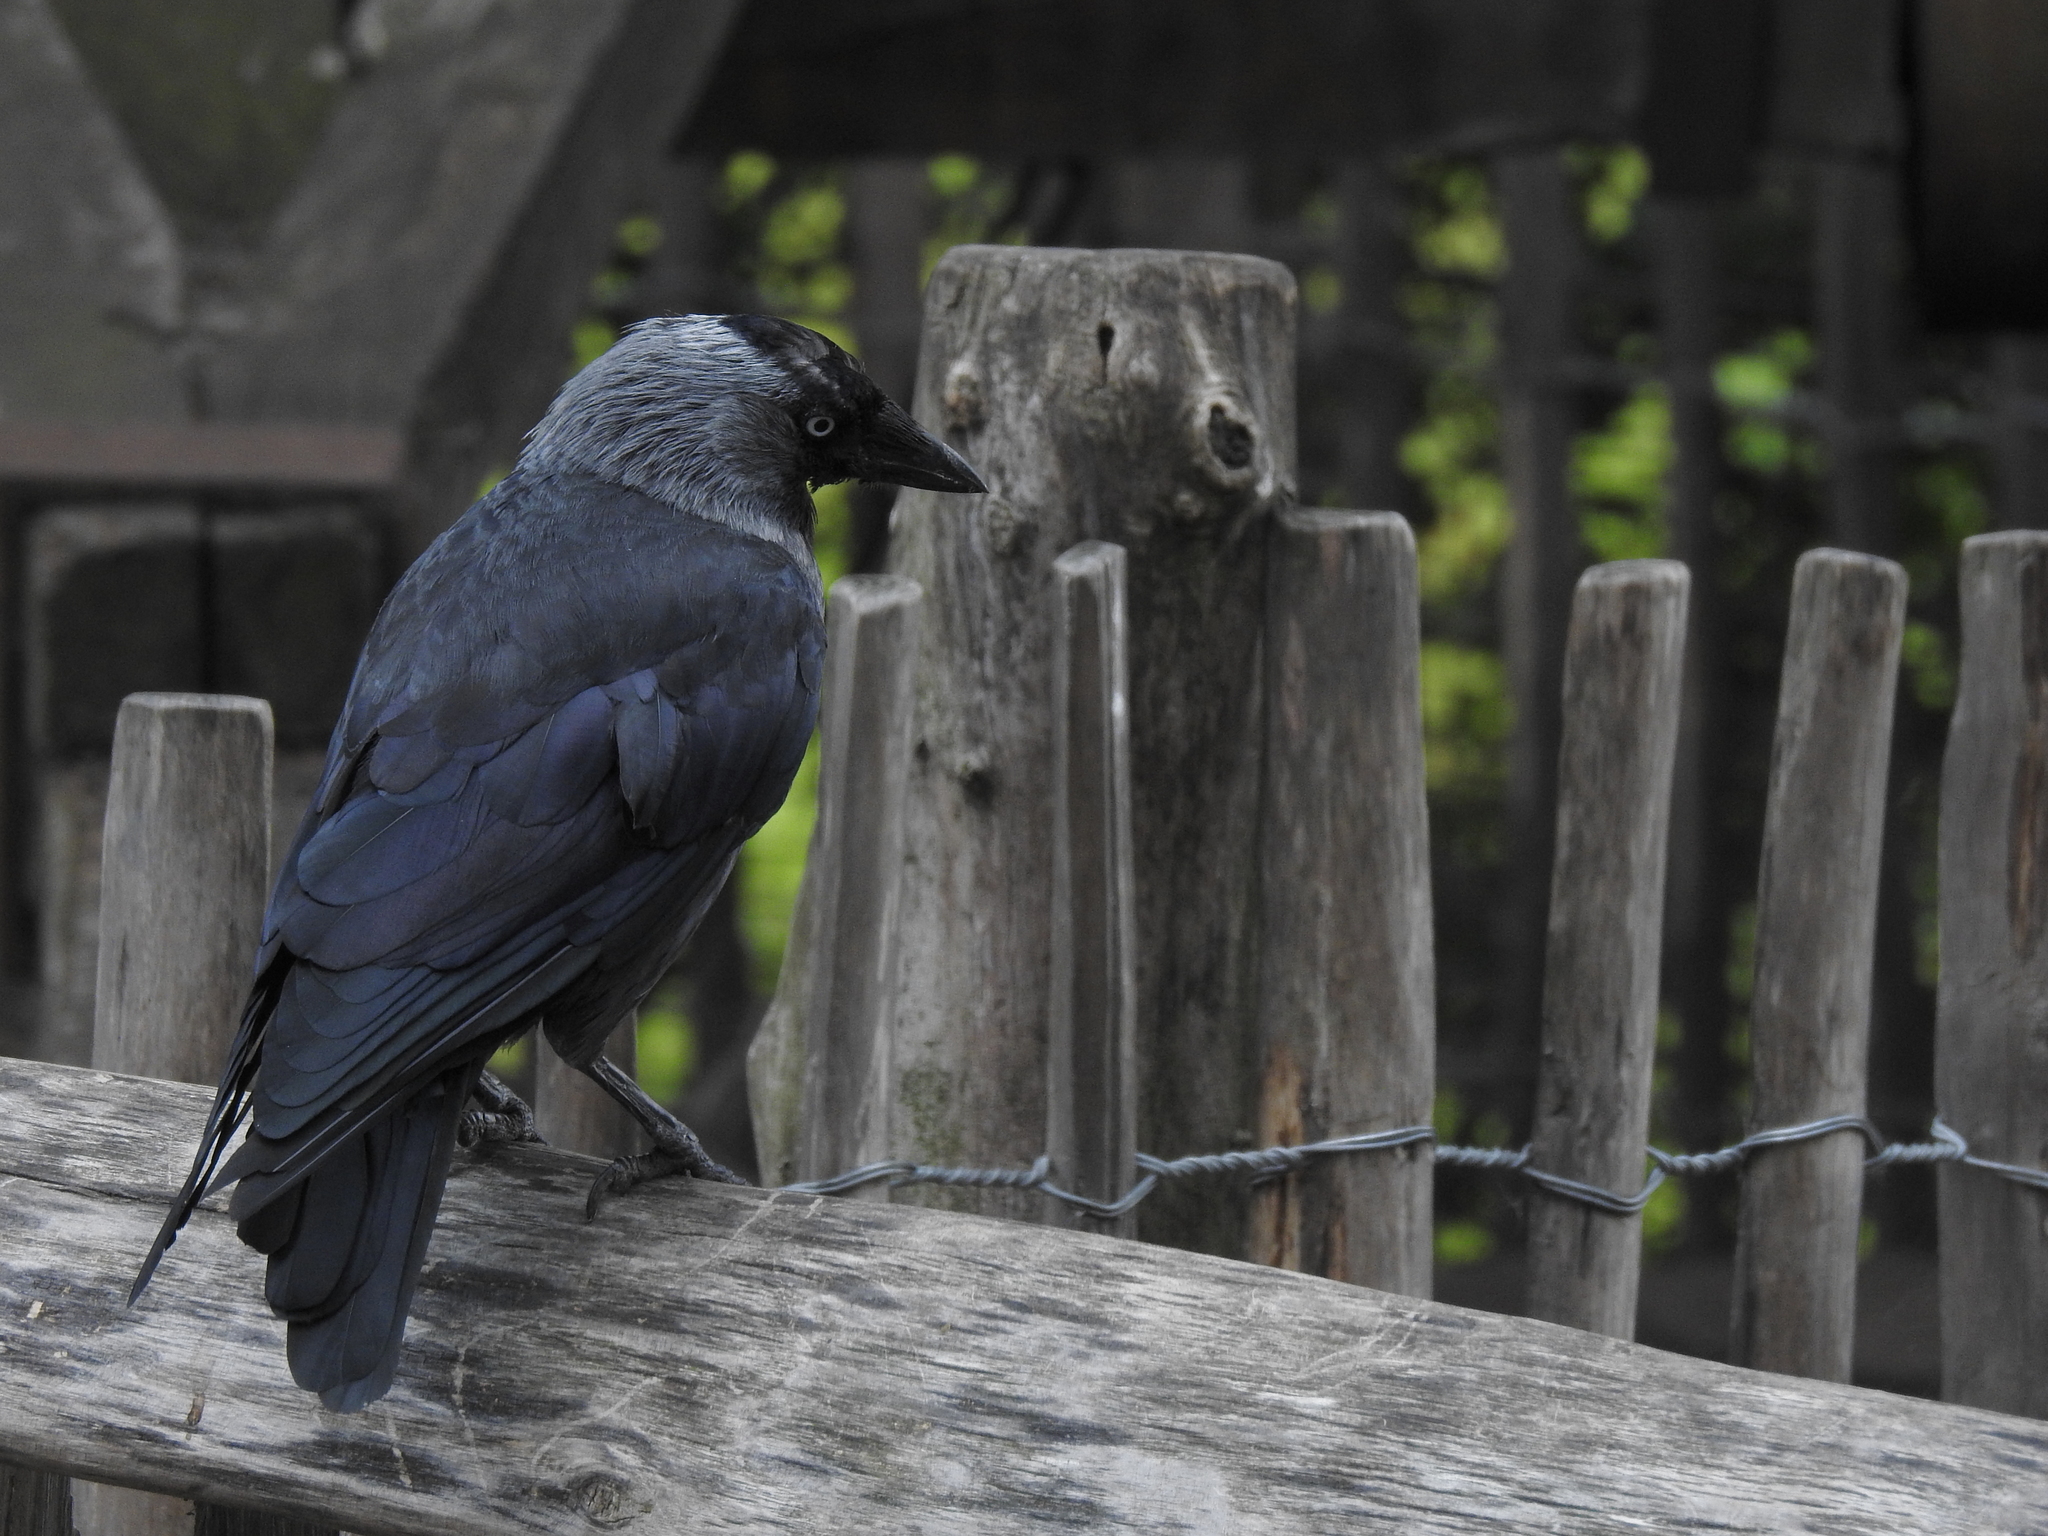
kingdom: Animalia
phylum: Chordata
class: Aves
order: Passeriformes
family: Corvidae
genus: Coloeus
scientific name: Coloeus monedula
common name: Western jackdaw
